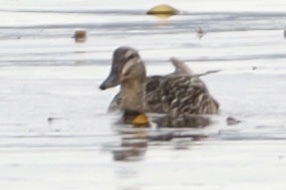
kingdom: Animalia
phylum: Chordata
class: Aves
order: Anseriformes
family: Anatidae
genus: Anas
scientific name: Anas platyrhynchos
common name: Mallard
